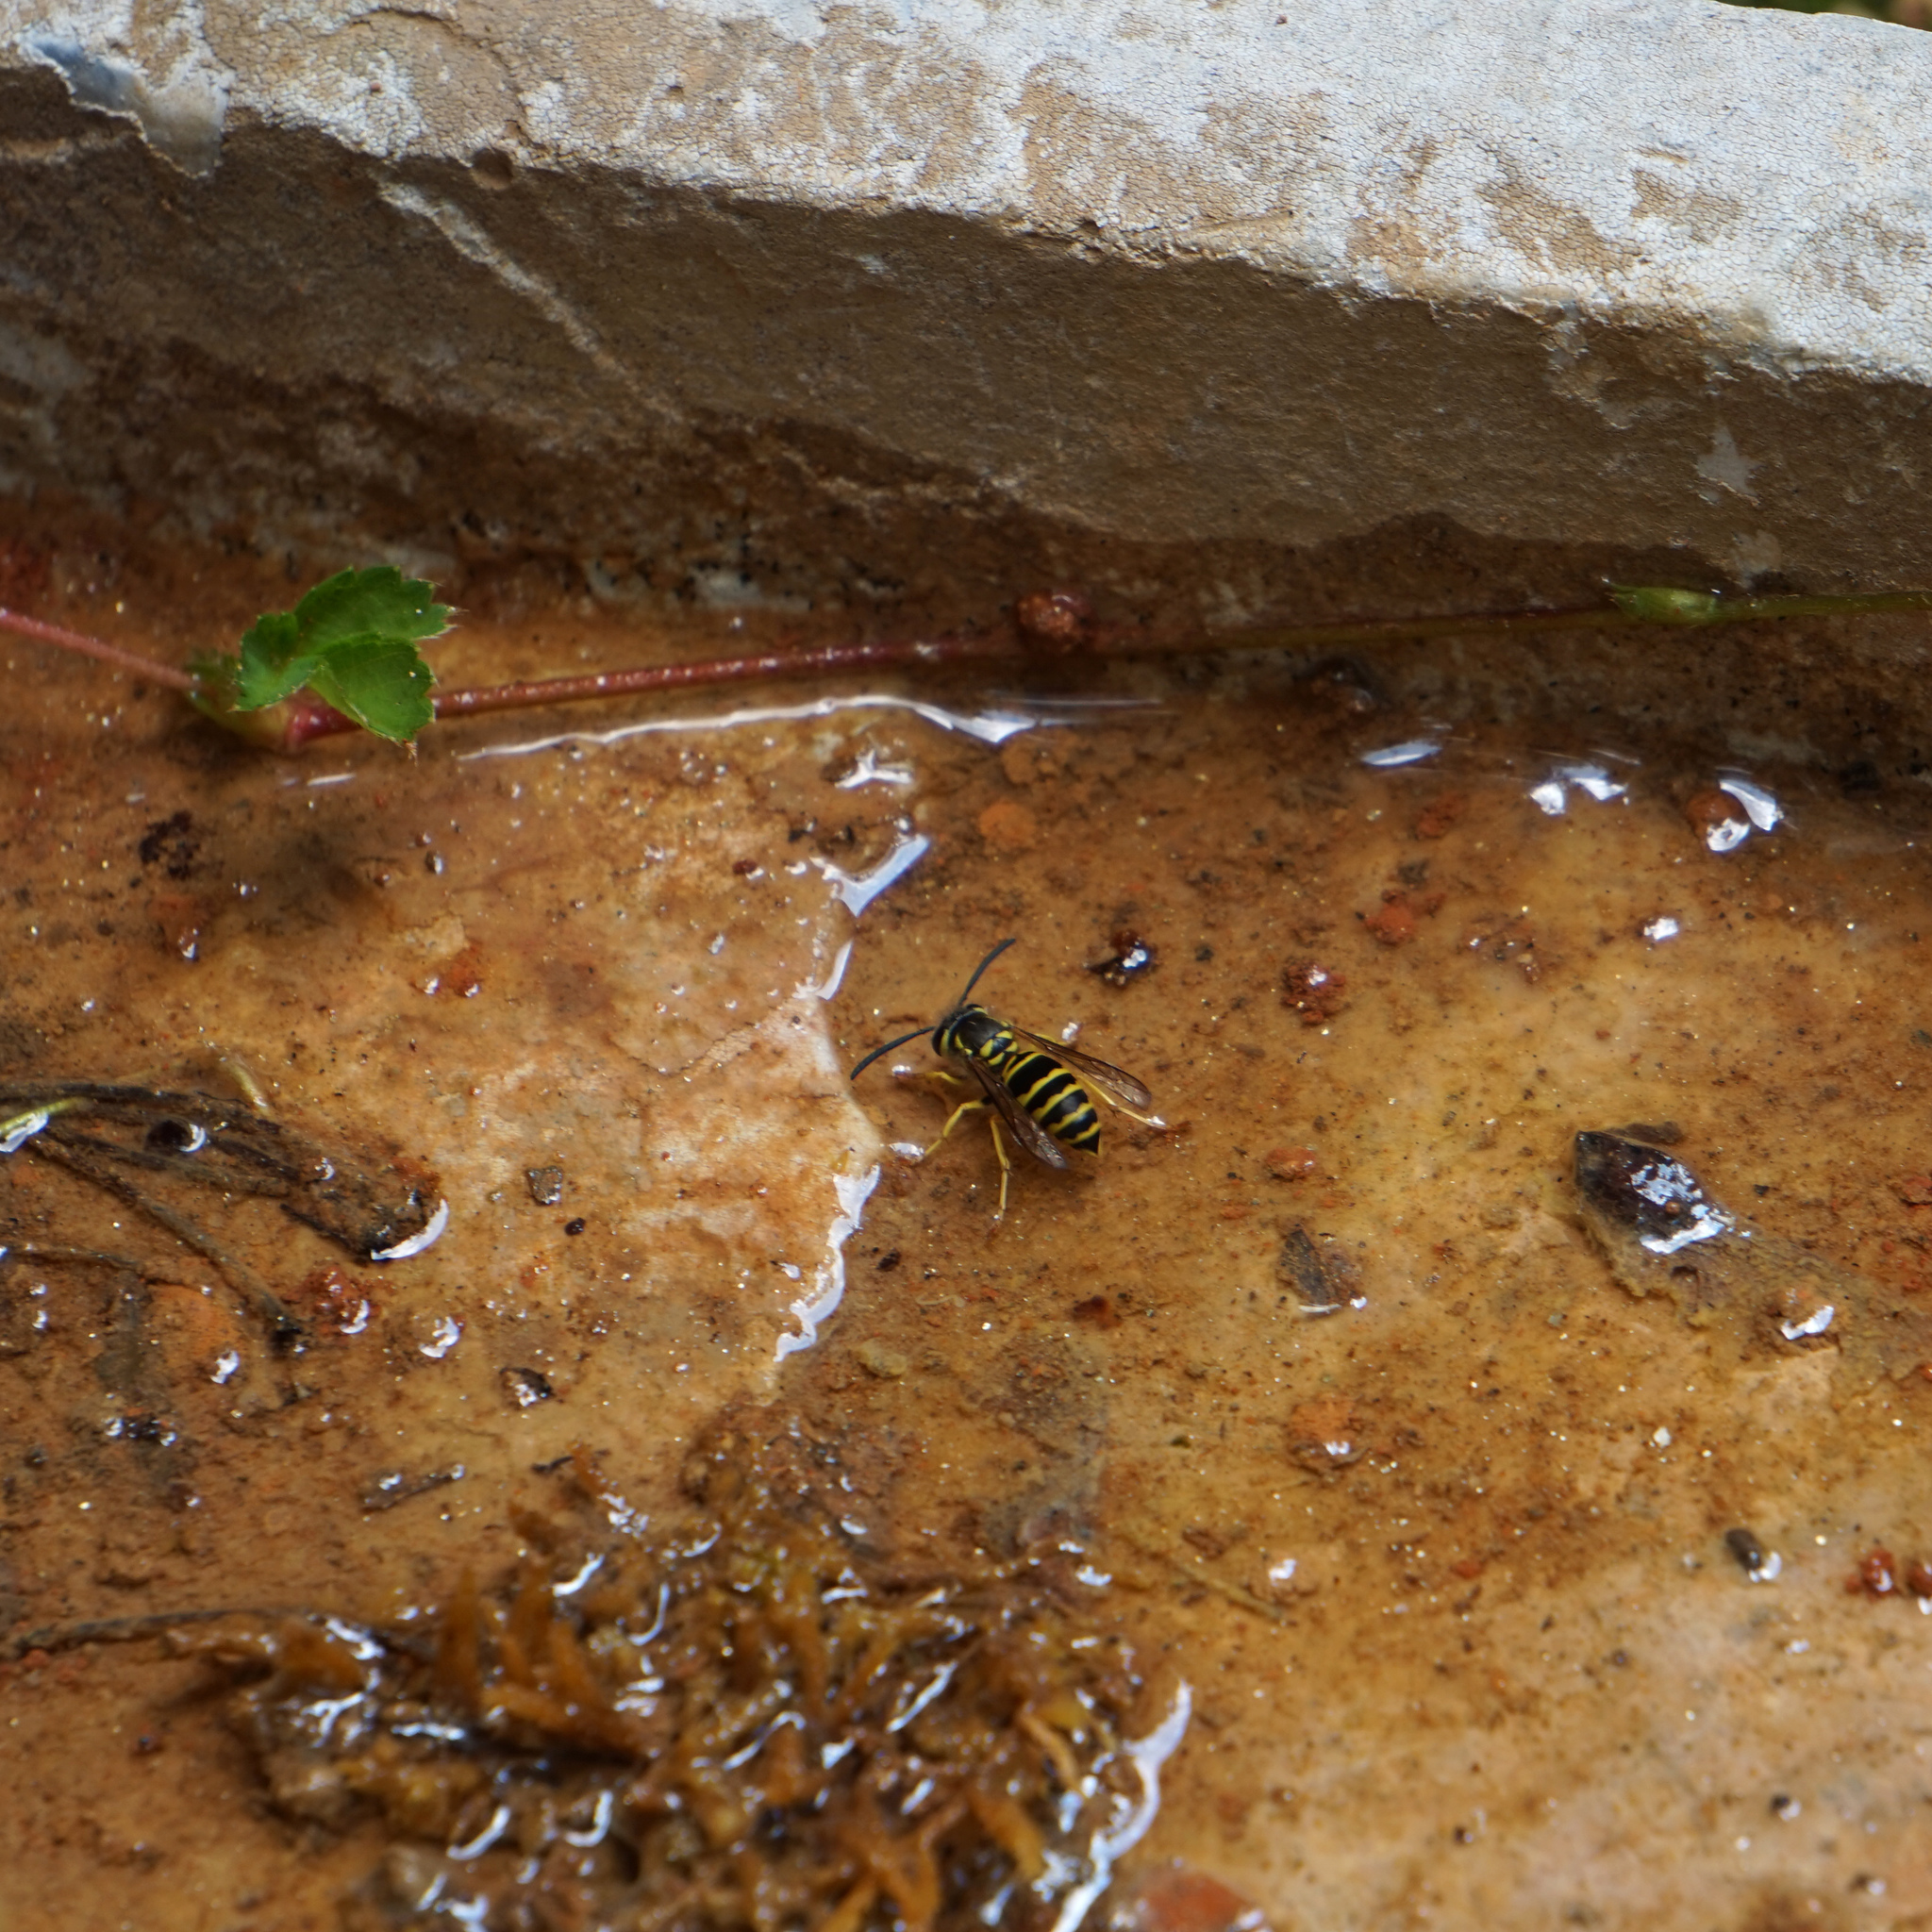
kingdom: Animalia
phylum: Arthropoda
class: Insecta
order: Hymenoptera
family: Vespidae
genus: Vespula
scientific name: Vespula maculifrons
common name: Eastern yellowjacket
